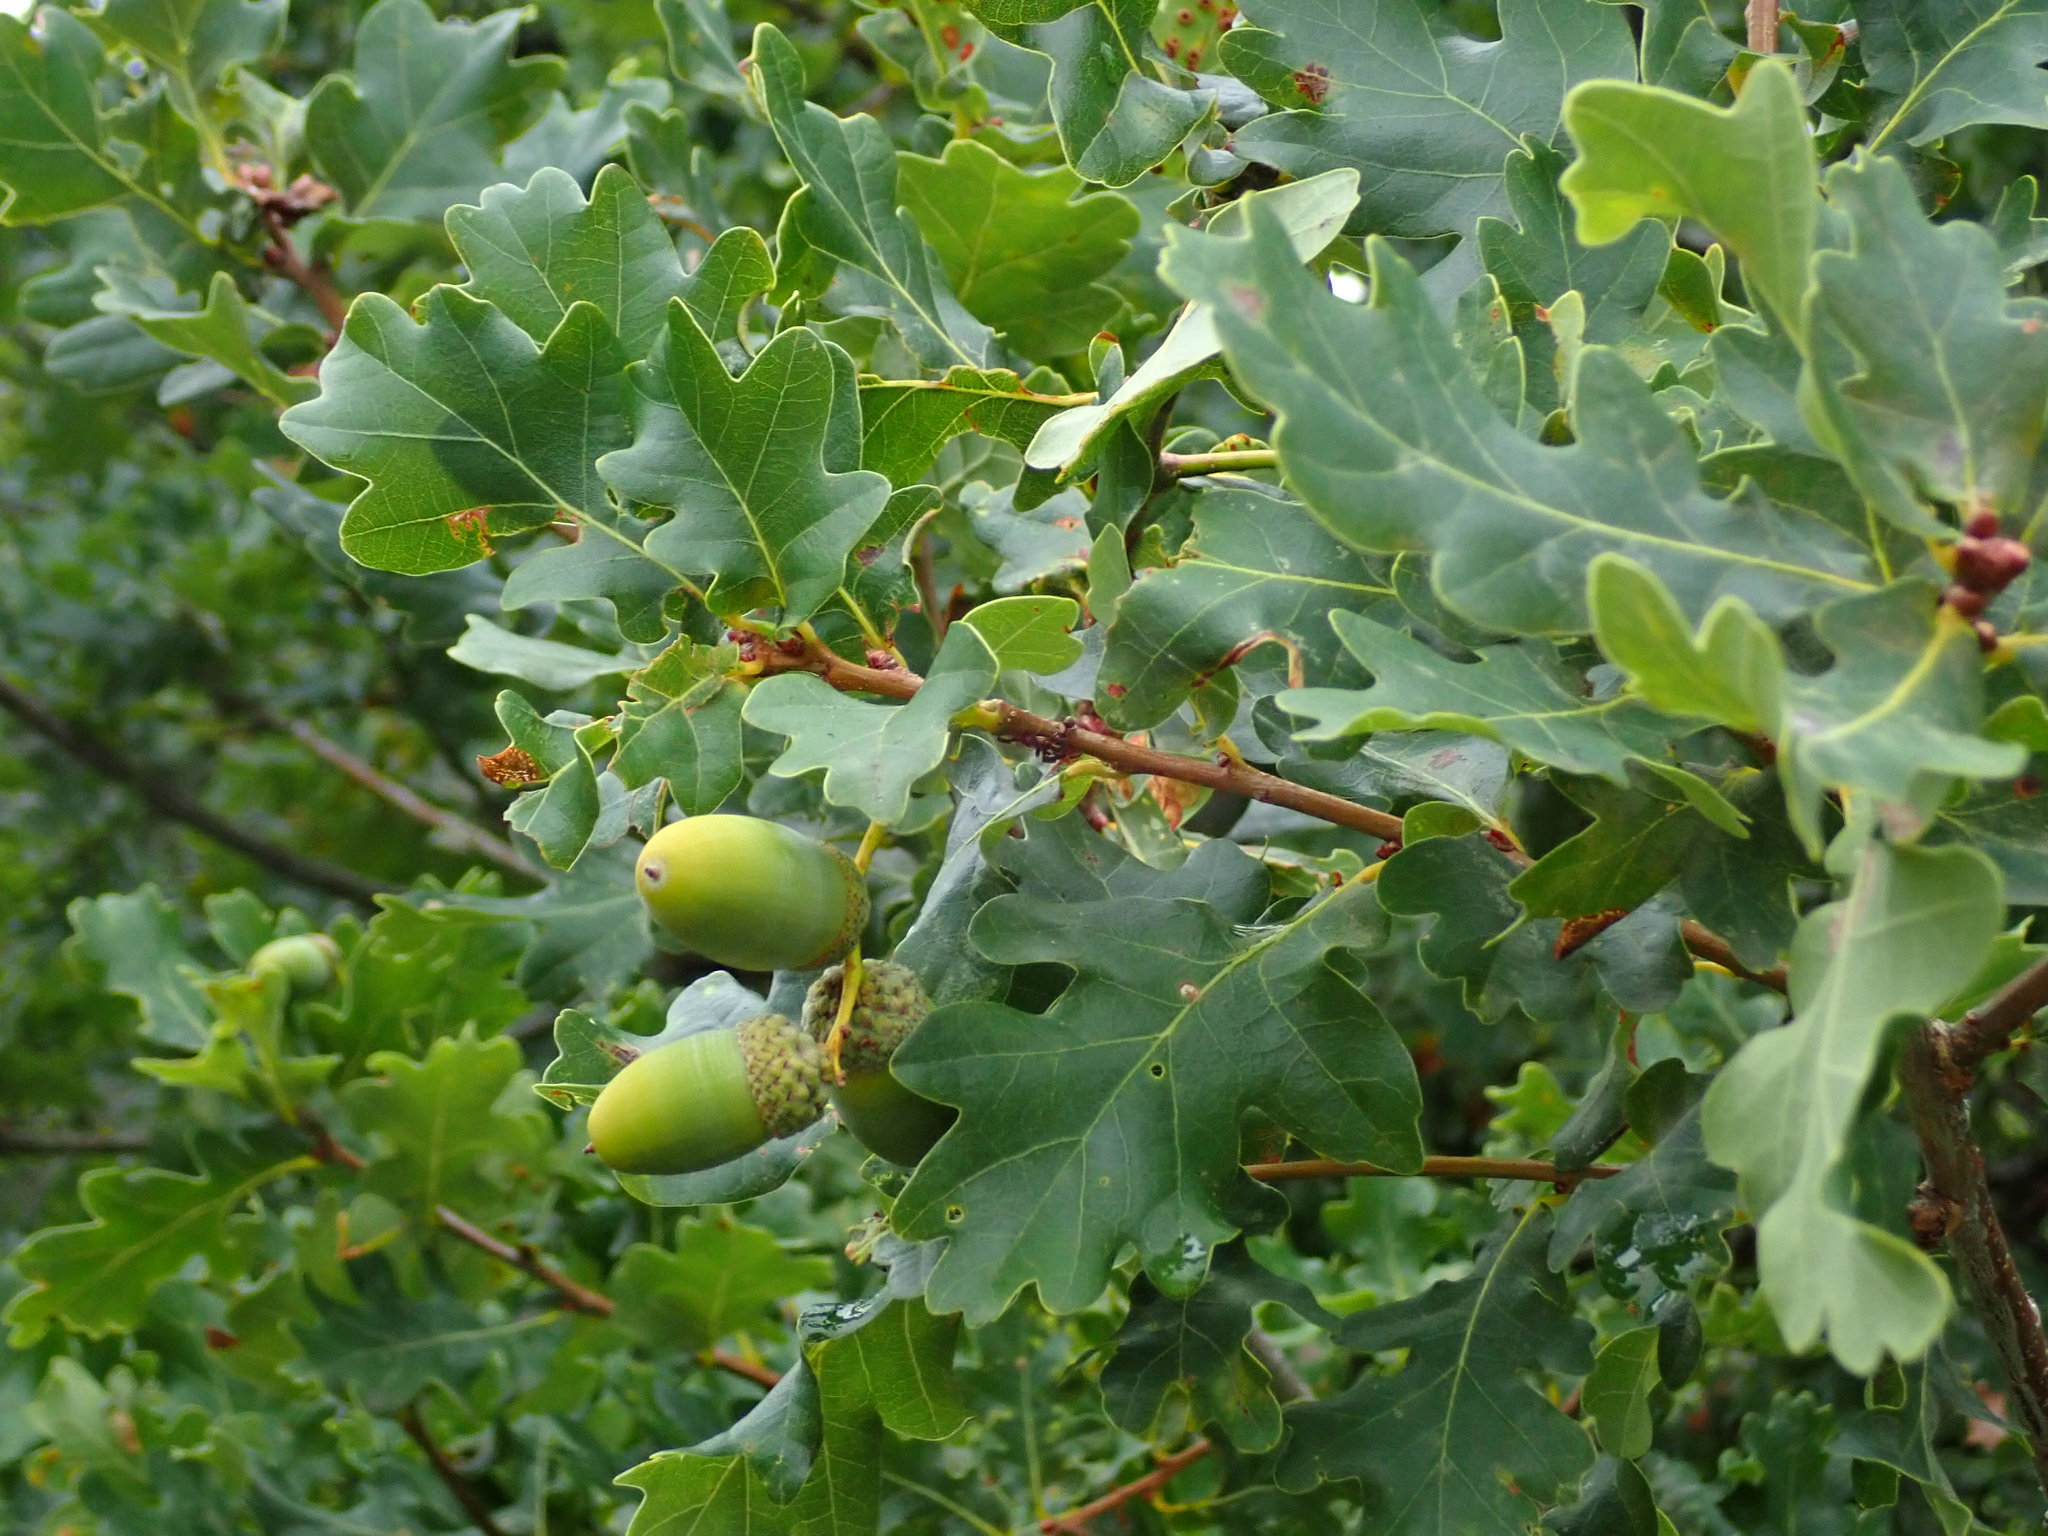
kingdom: Plantae
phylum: Tracheophyta
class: Magnoliopsida
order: Fagales
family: Fagaceae
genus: Quercus
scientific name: Quercus robur
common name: Pedunculate oak
